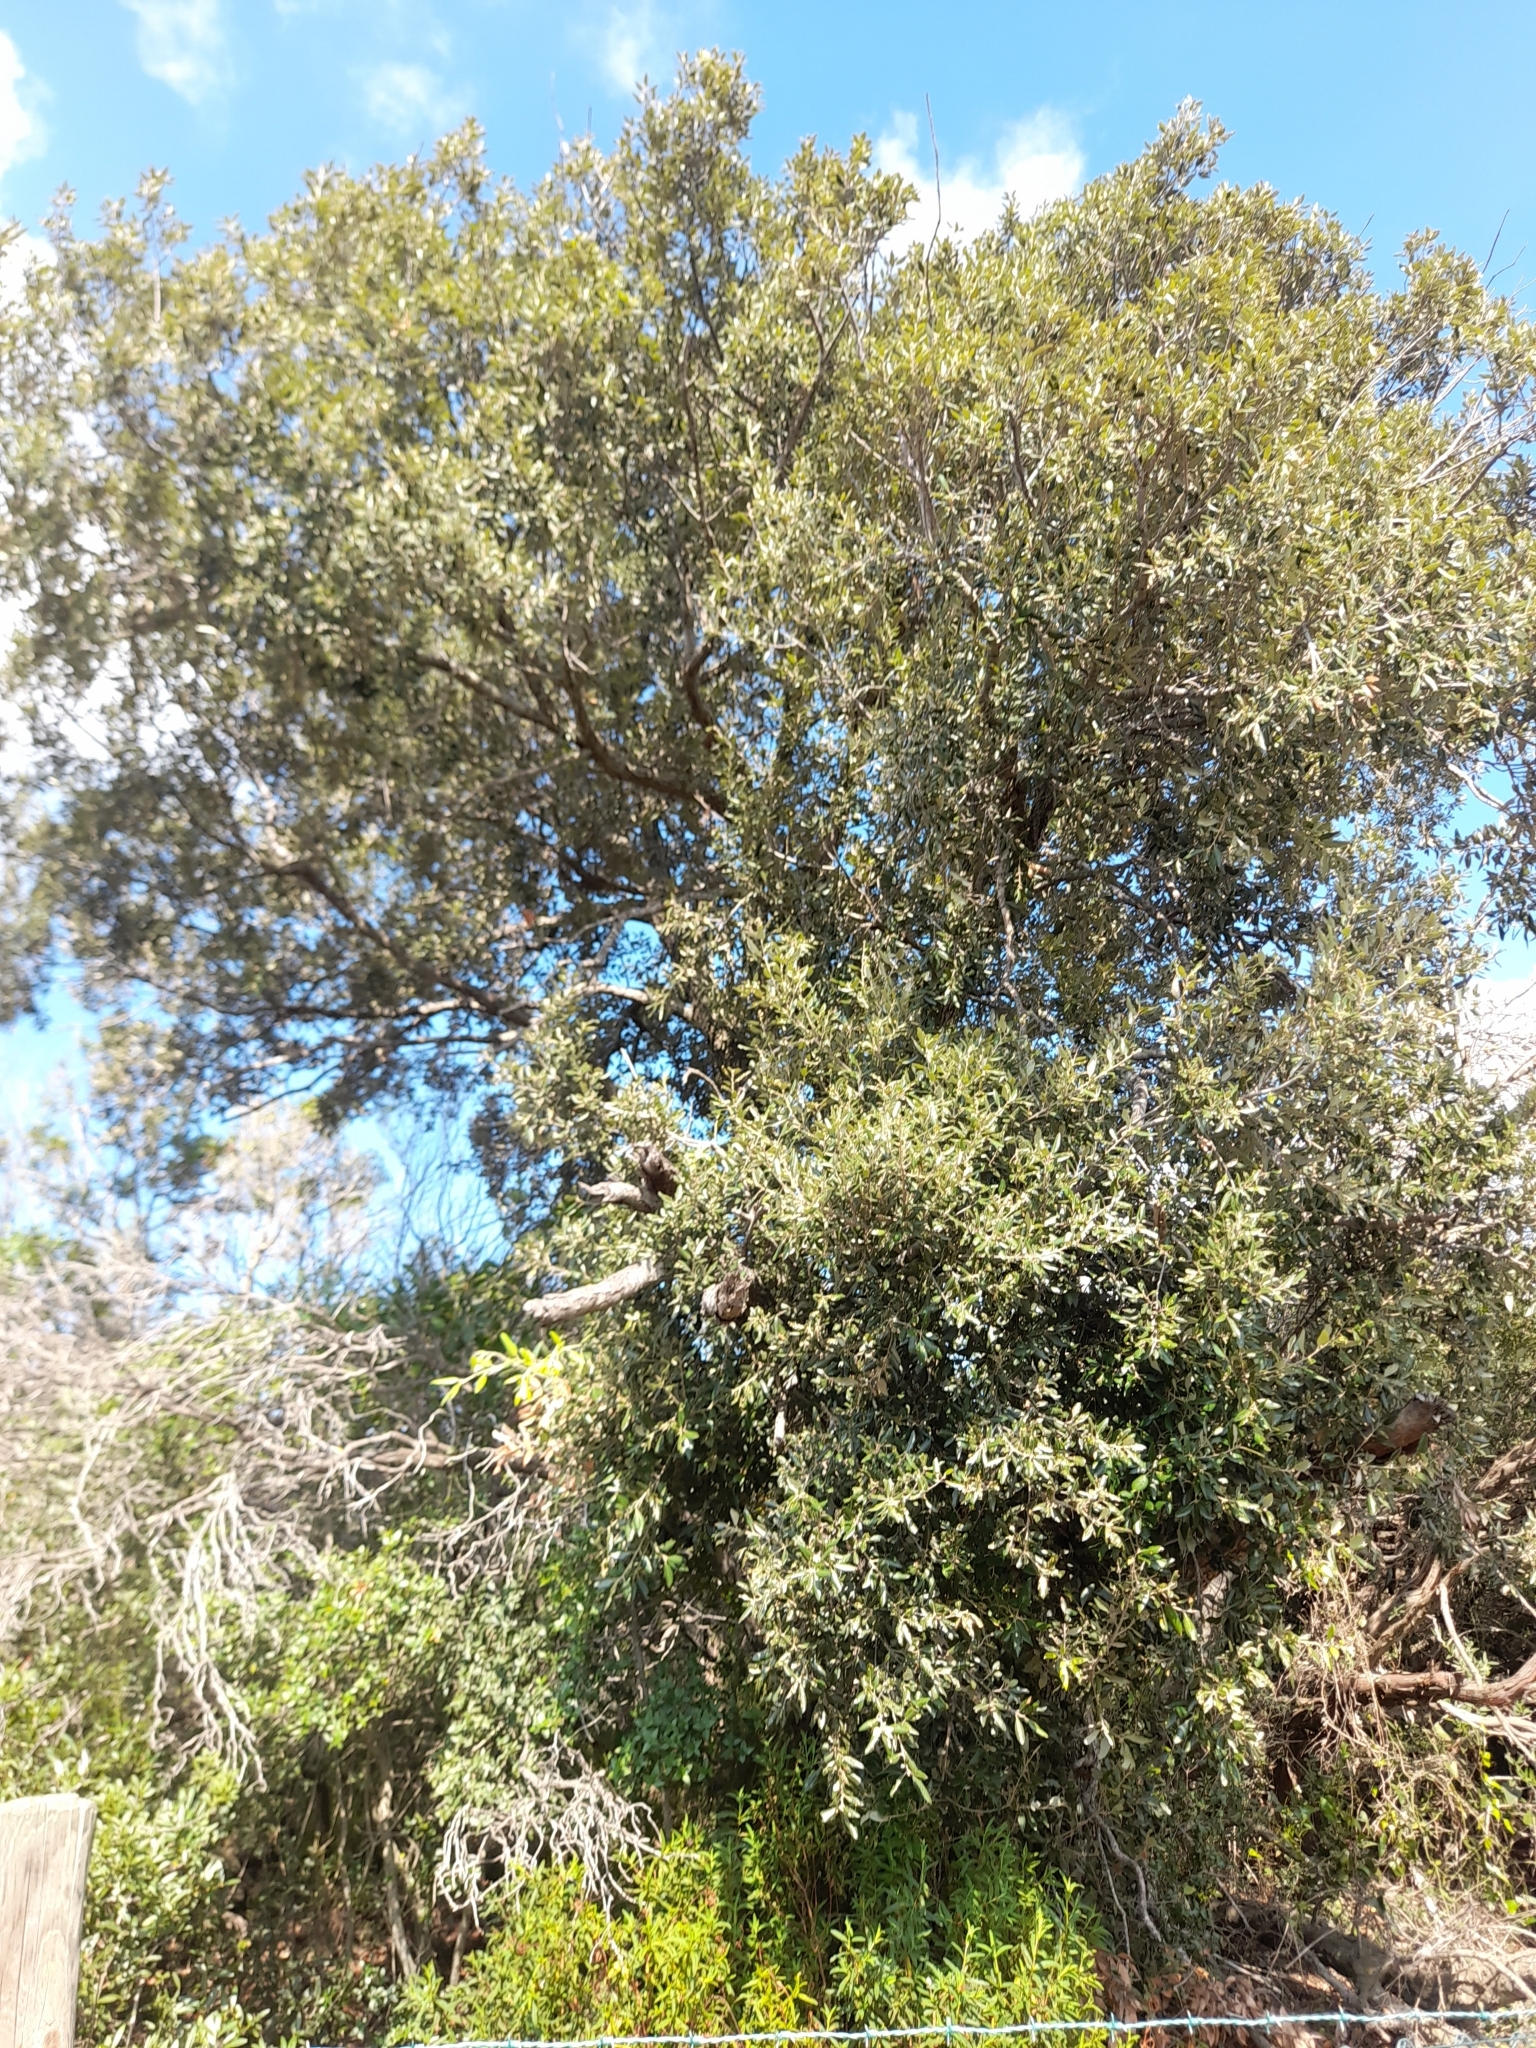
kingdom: Plantae
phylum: Tracheophyta
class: Magnoliopsida
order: Fagales
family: Fagaceae
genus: Quercus
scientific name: Quercus ilex
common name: Evergreen oak
